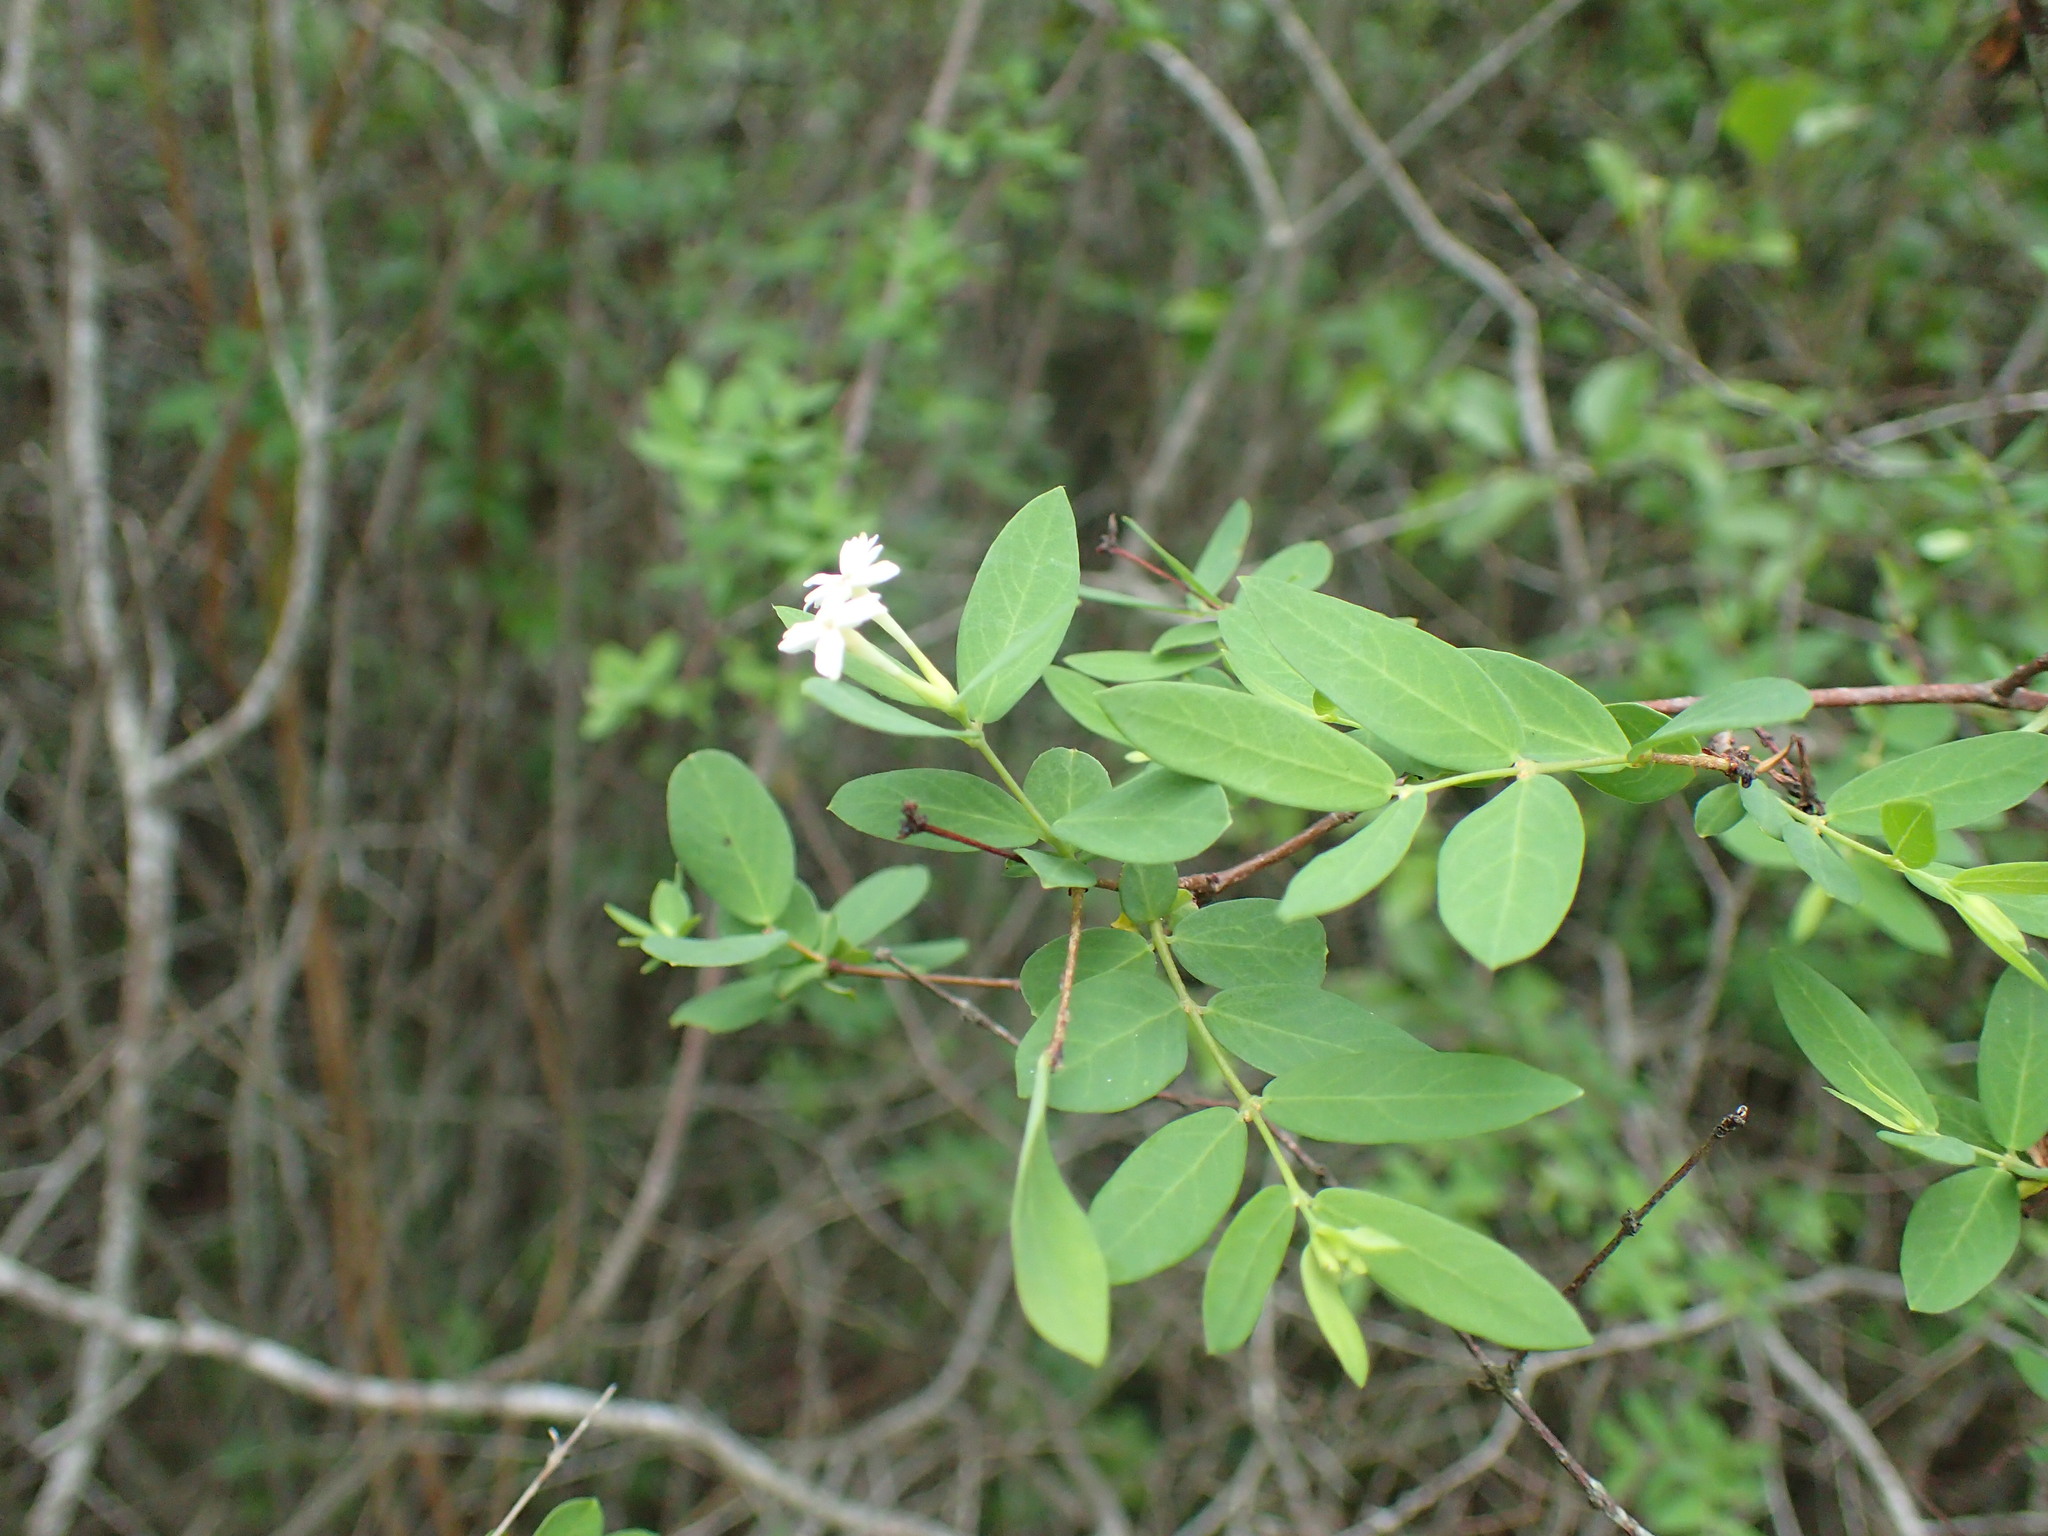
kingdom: Plantae
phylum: Tracheophyta
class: Magnoliopsida
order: Malvales
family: Thymelaeaceae
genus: Gnidia
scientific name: Gnidia subcordata
